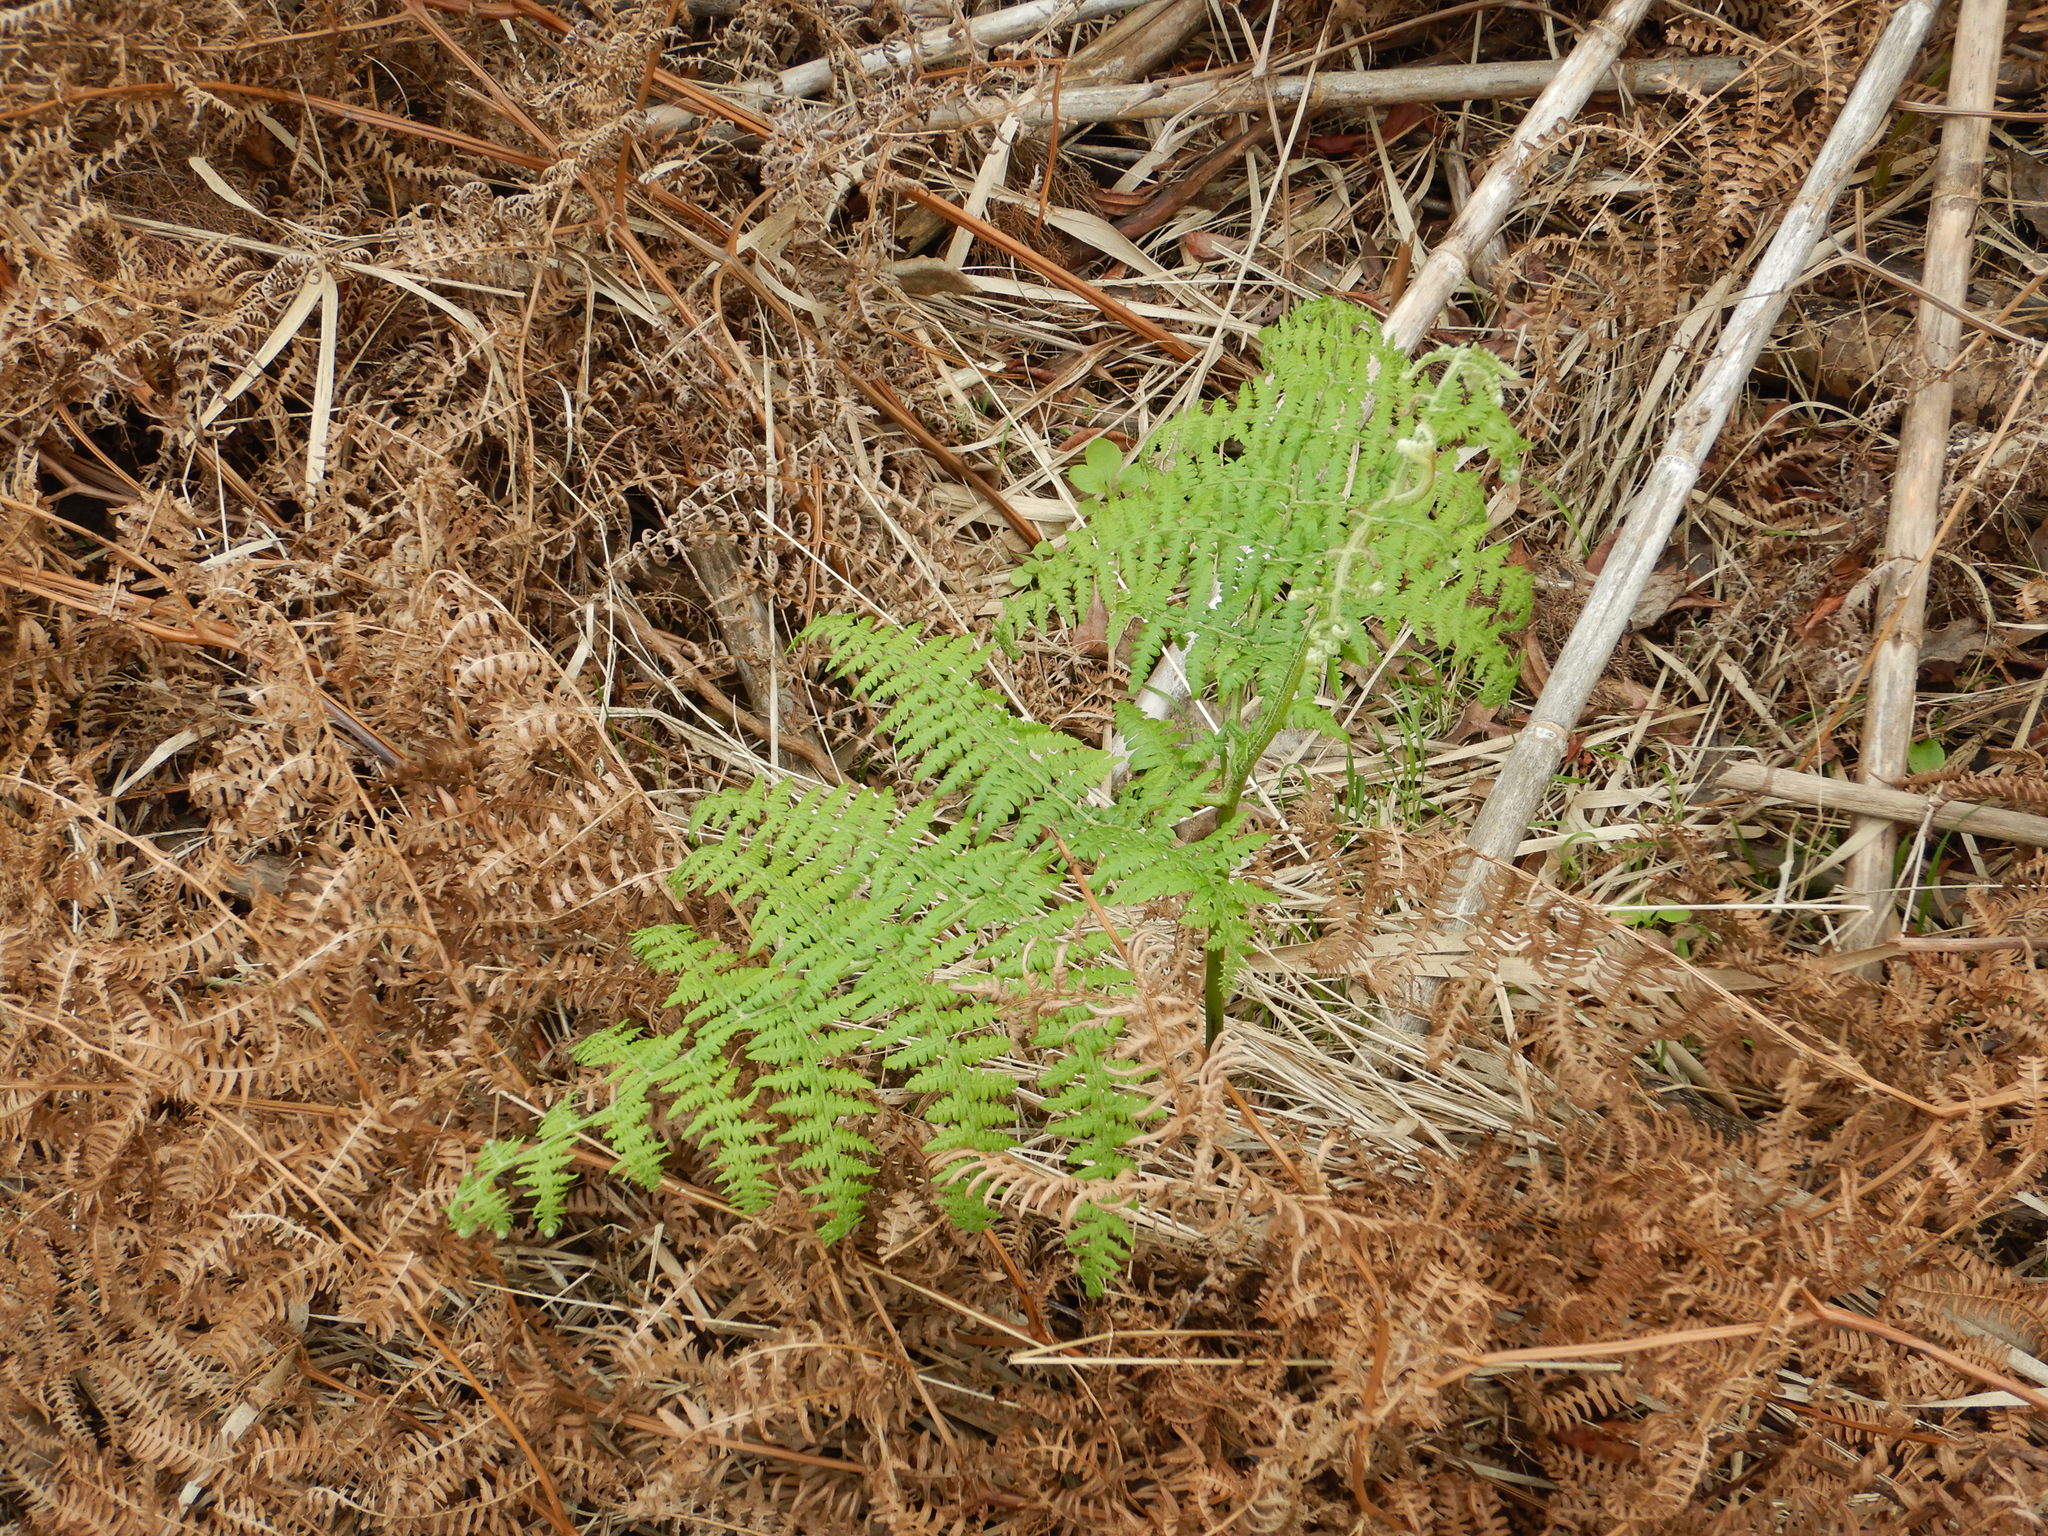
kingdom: Plantae
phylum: Tracheophyta
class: Polypodiopsida
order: Polypodiales
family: Dennstaedtiaceae
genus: Pteridium
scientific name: Pteridium aquilinum
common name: Bracken
